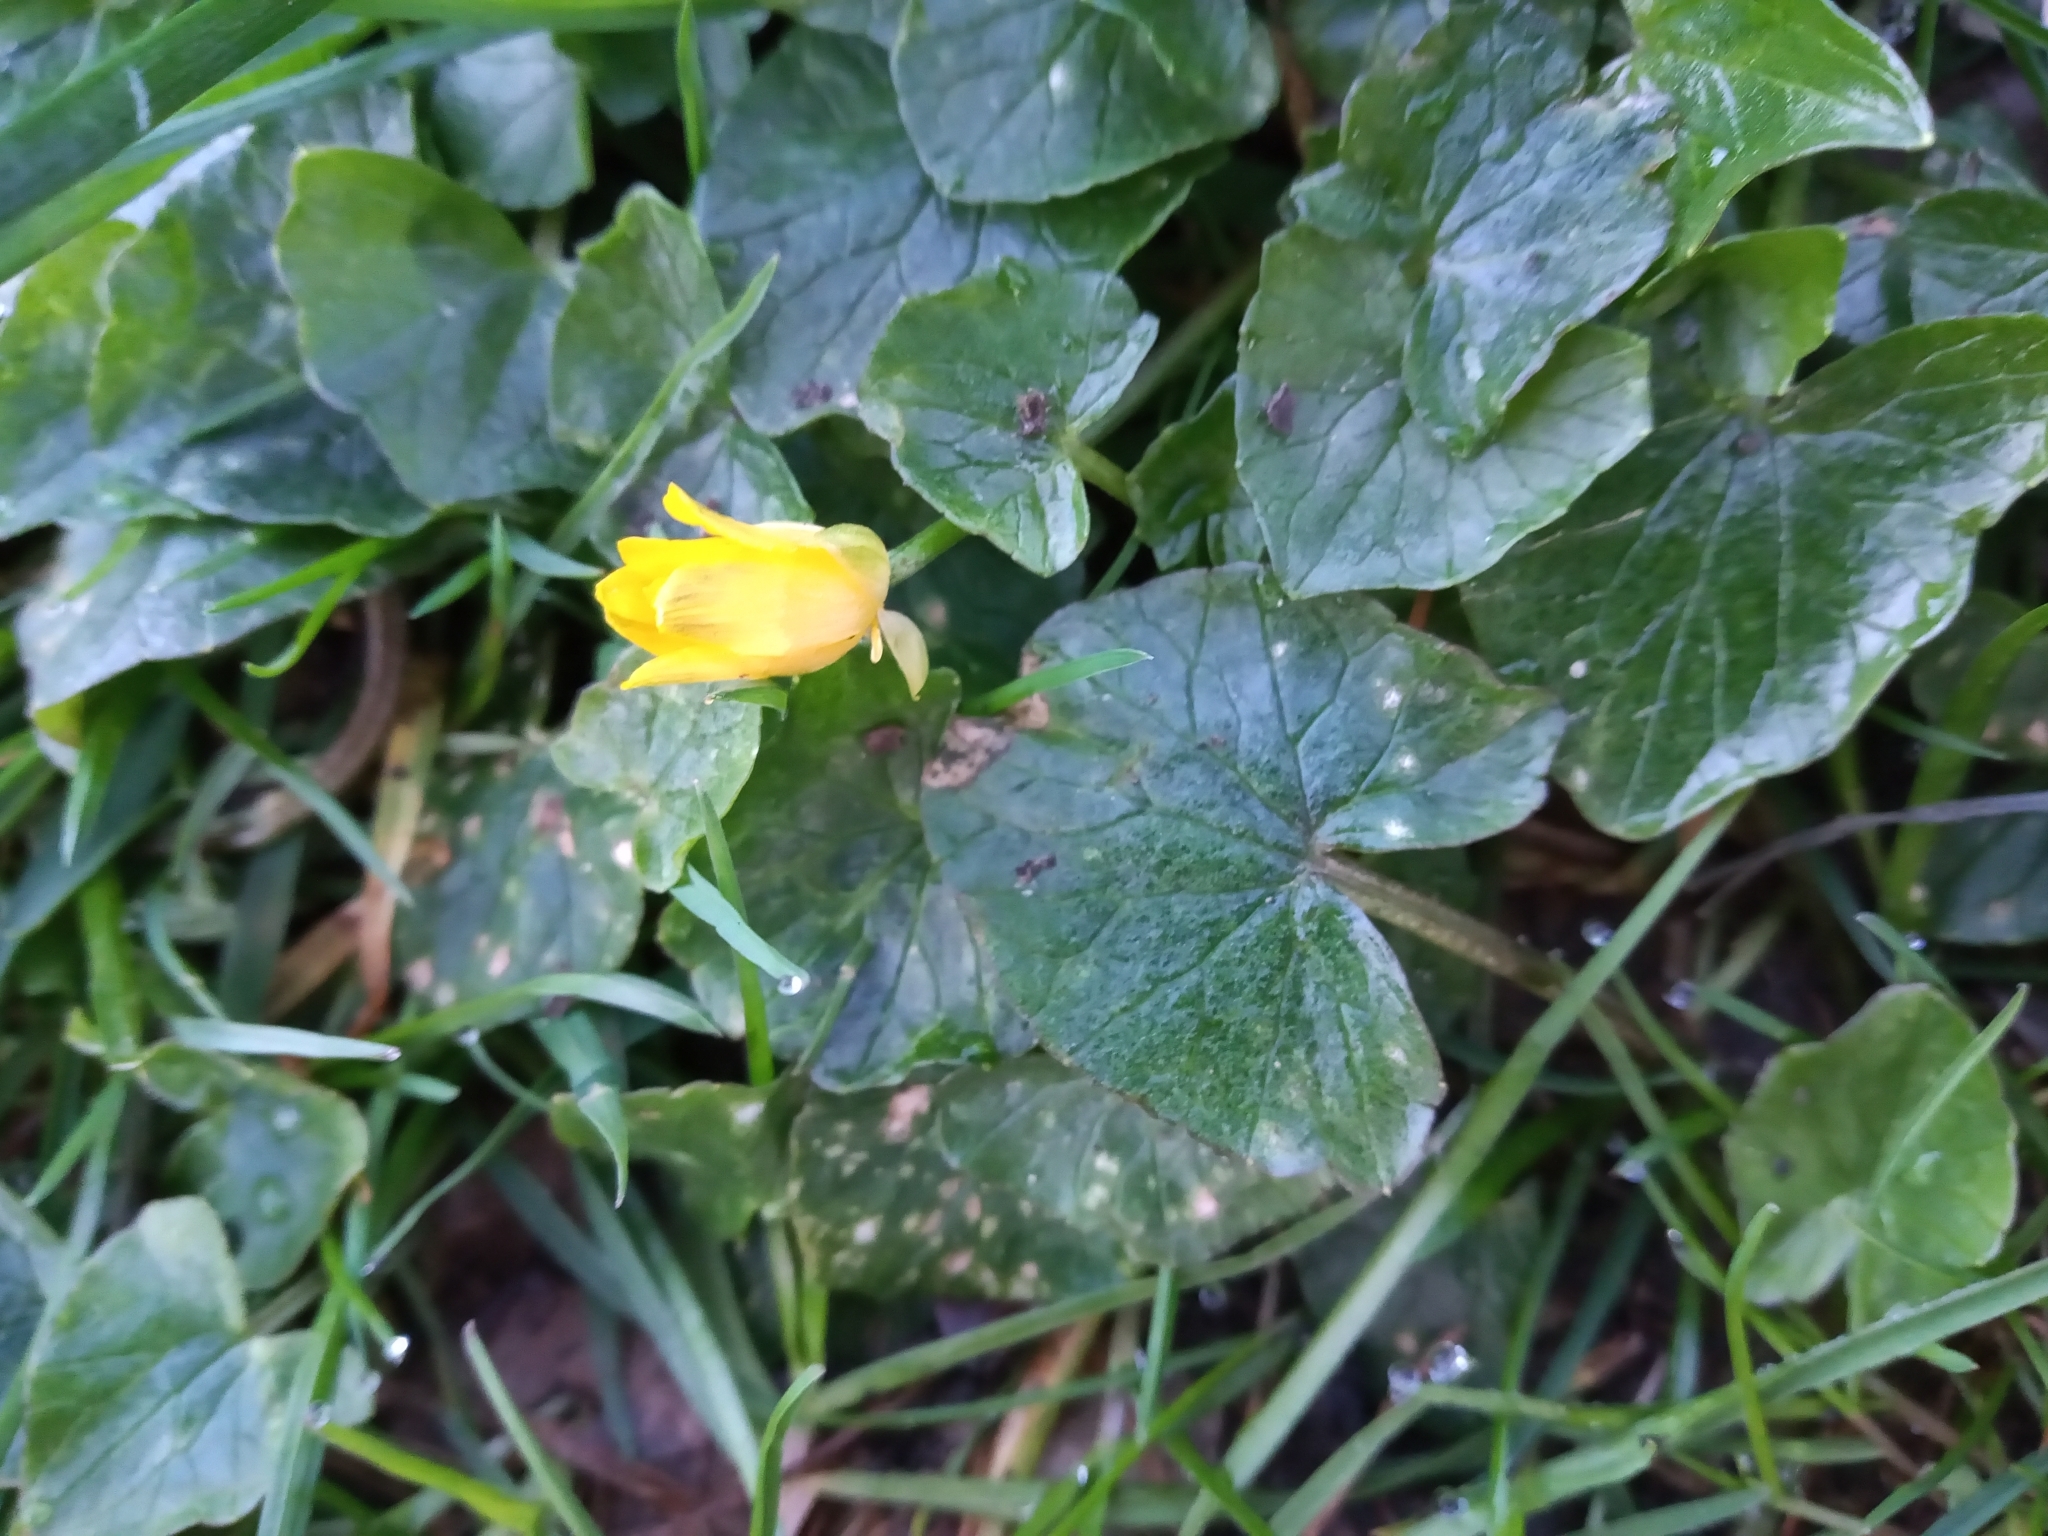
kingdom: Plantae
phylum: Tracheophyta
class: Magnoliopsida
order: Ranunculales
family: Ranunculaceae
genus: Ficaria
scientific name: Ficaria verna
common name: Lesser celandine
